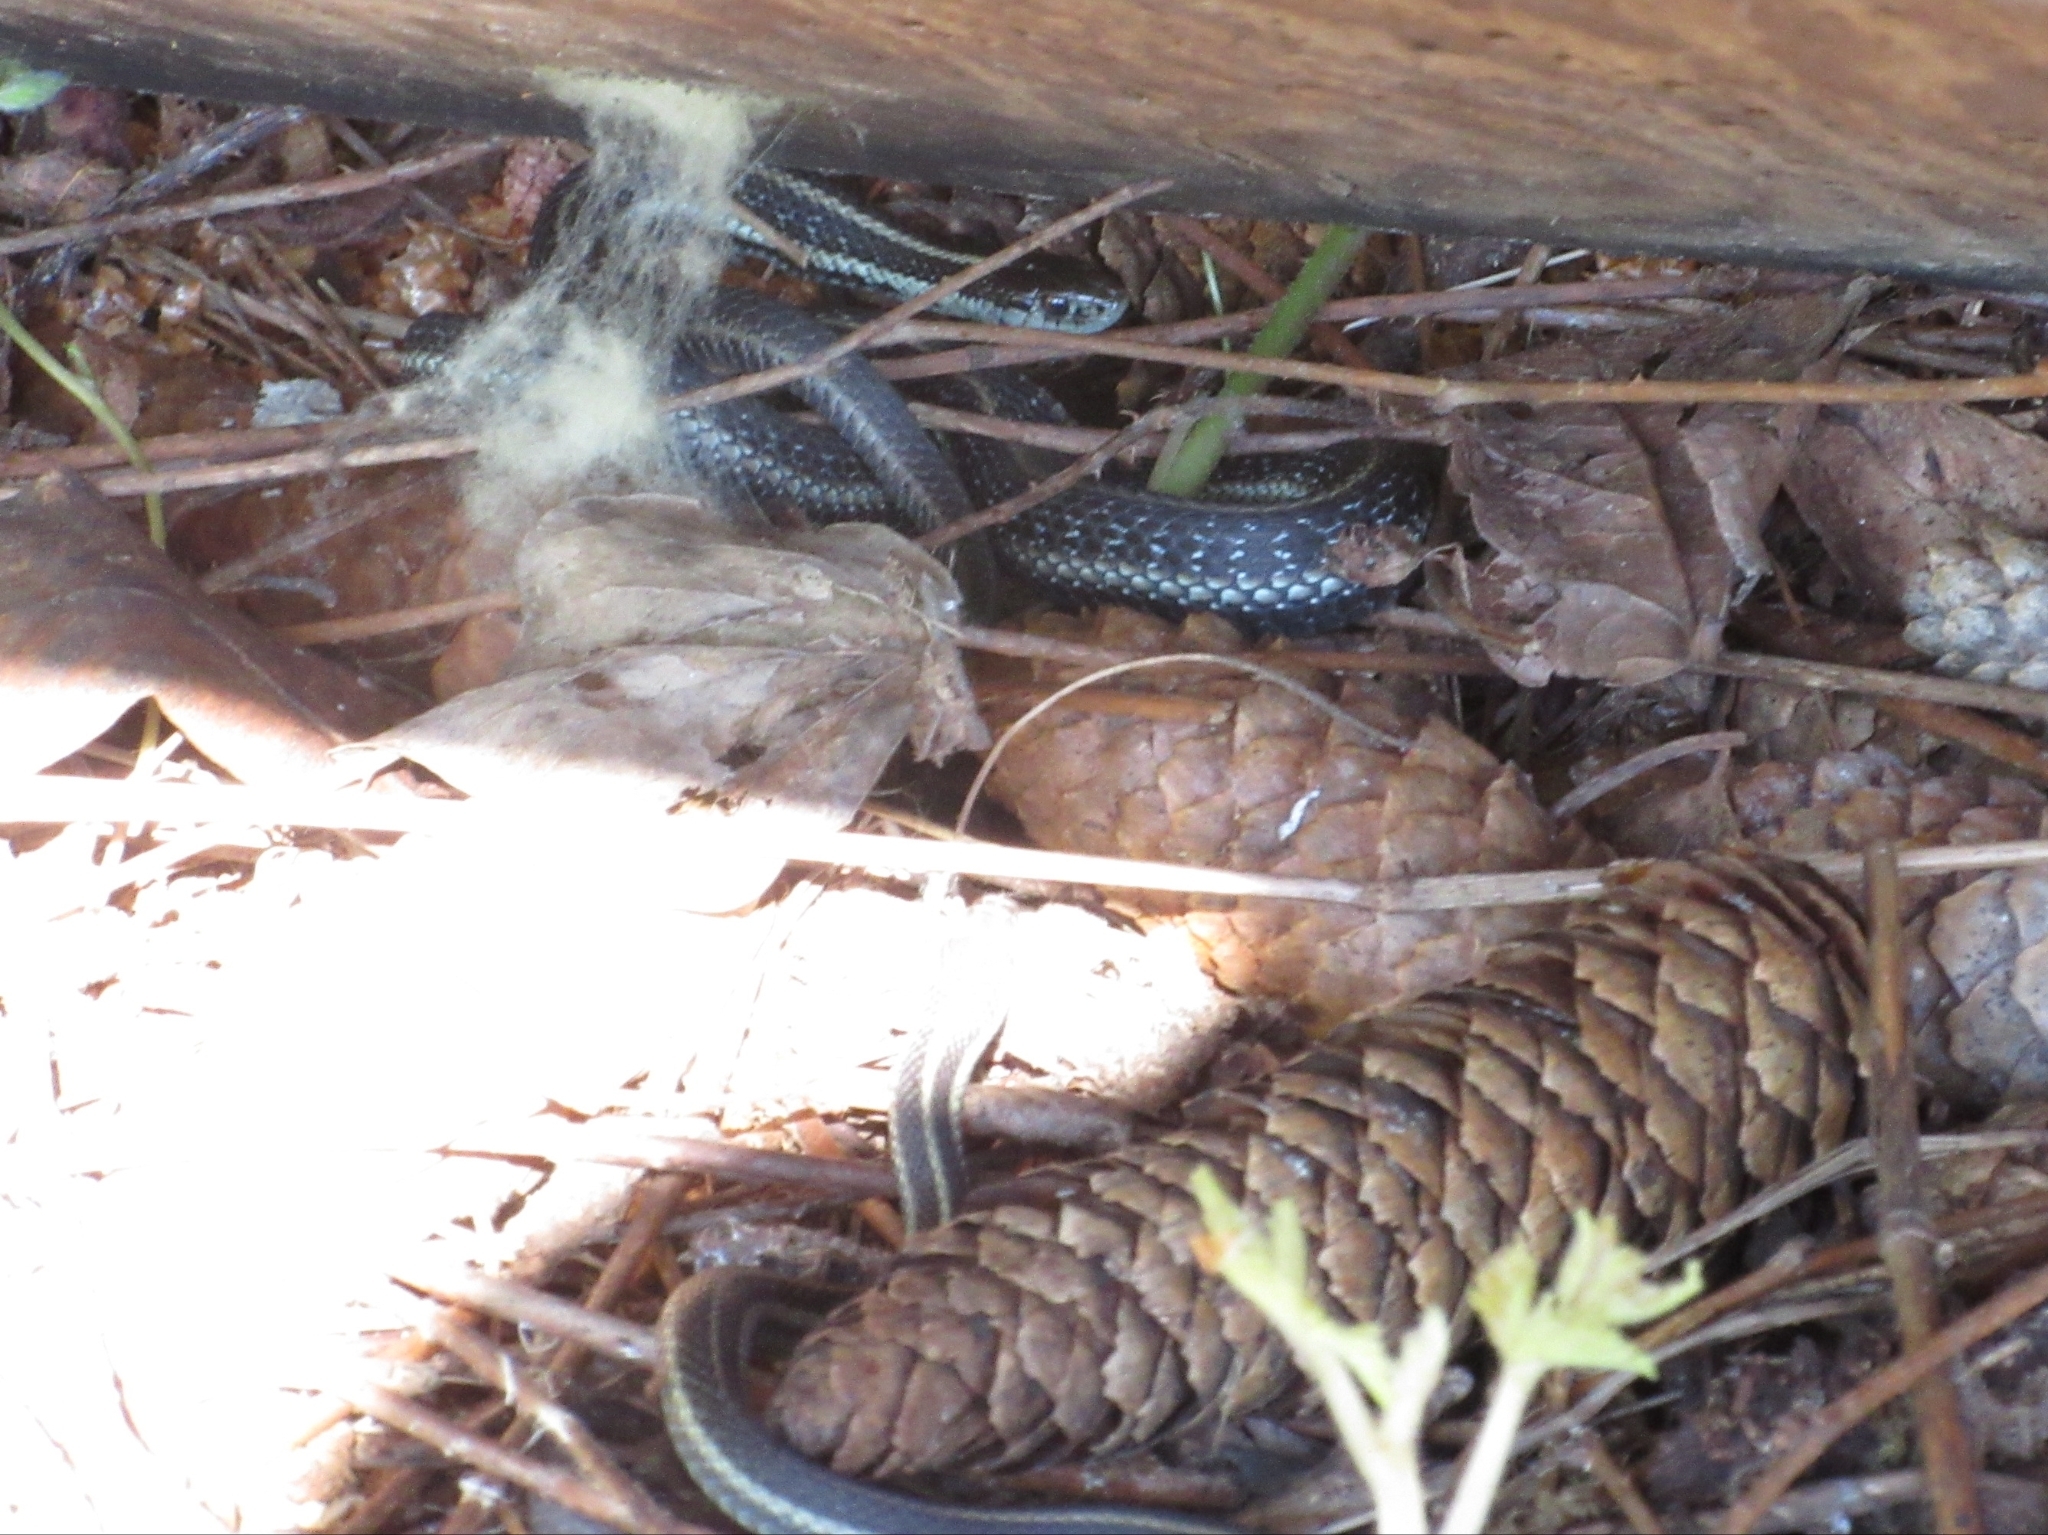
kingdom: Animalia
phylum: Chordata
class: Squamata
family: Colubridae
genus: Thamnophis
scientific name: Thamnophis ordinoides
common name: Northwestern garter snake
